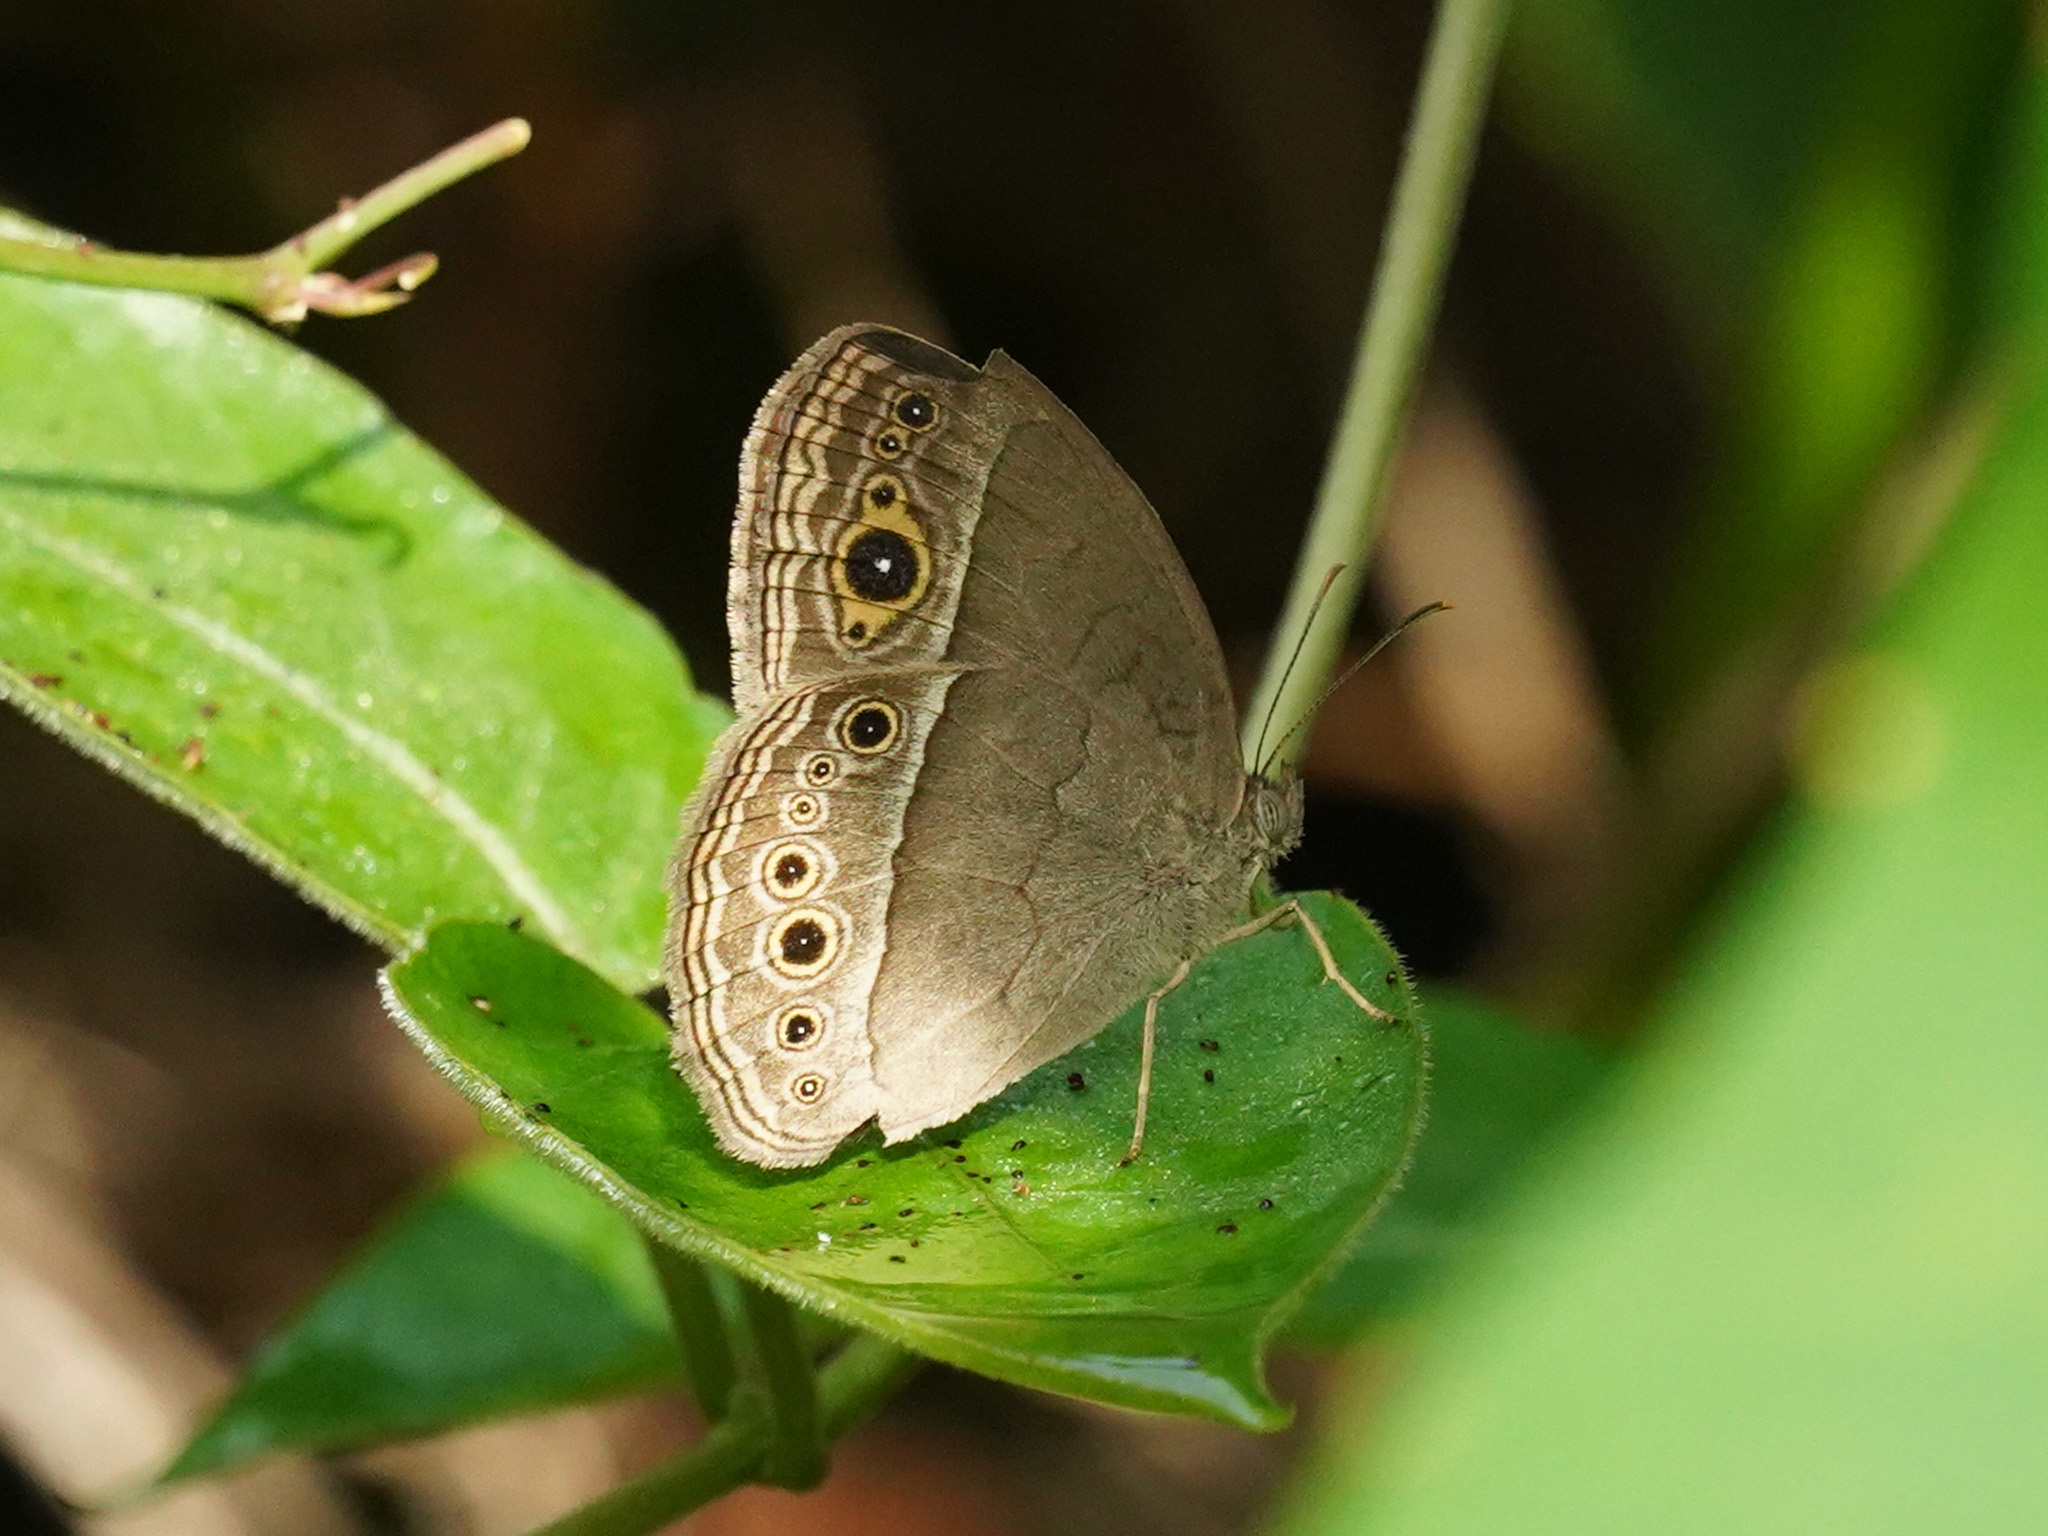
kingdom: Animalia
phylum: Arthropoda
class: Insecta
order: Lepidoptera
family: Nymphalidae
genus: Mycalesis
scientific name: Mycalesis perseoides
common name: Burmese bushbrown
